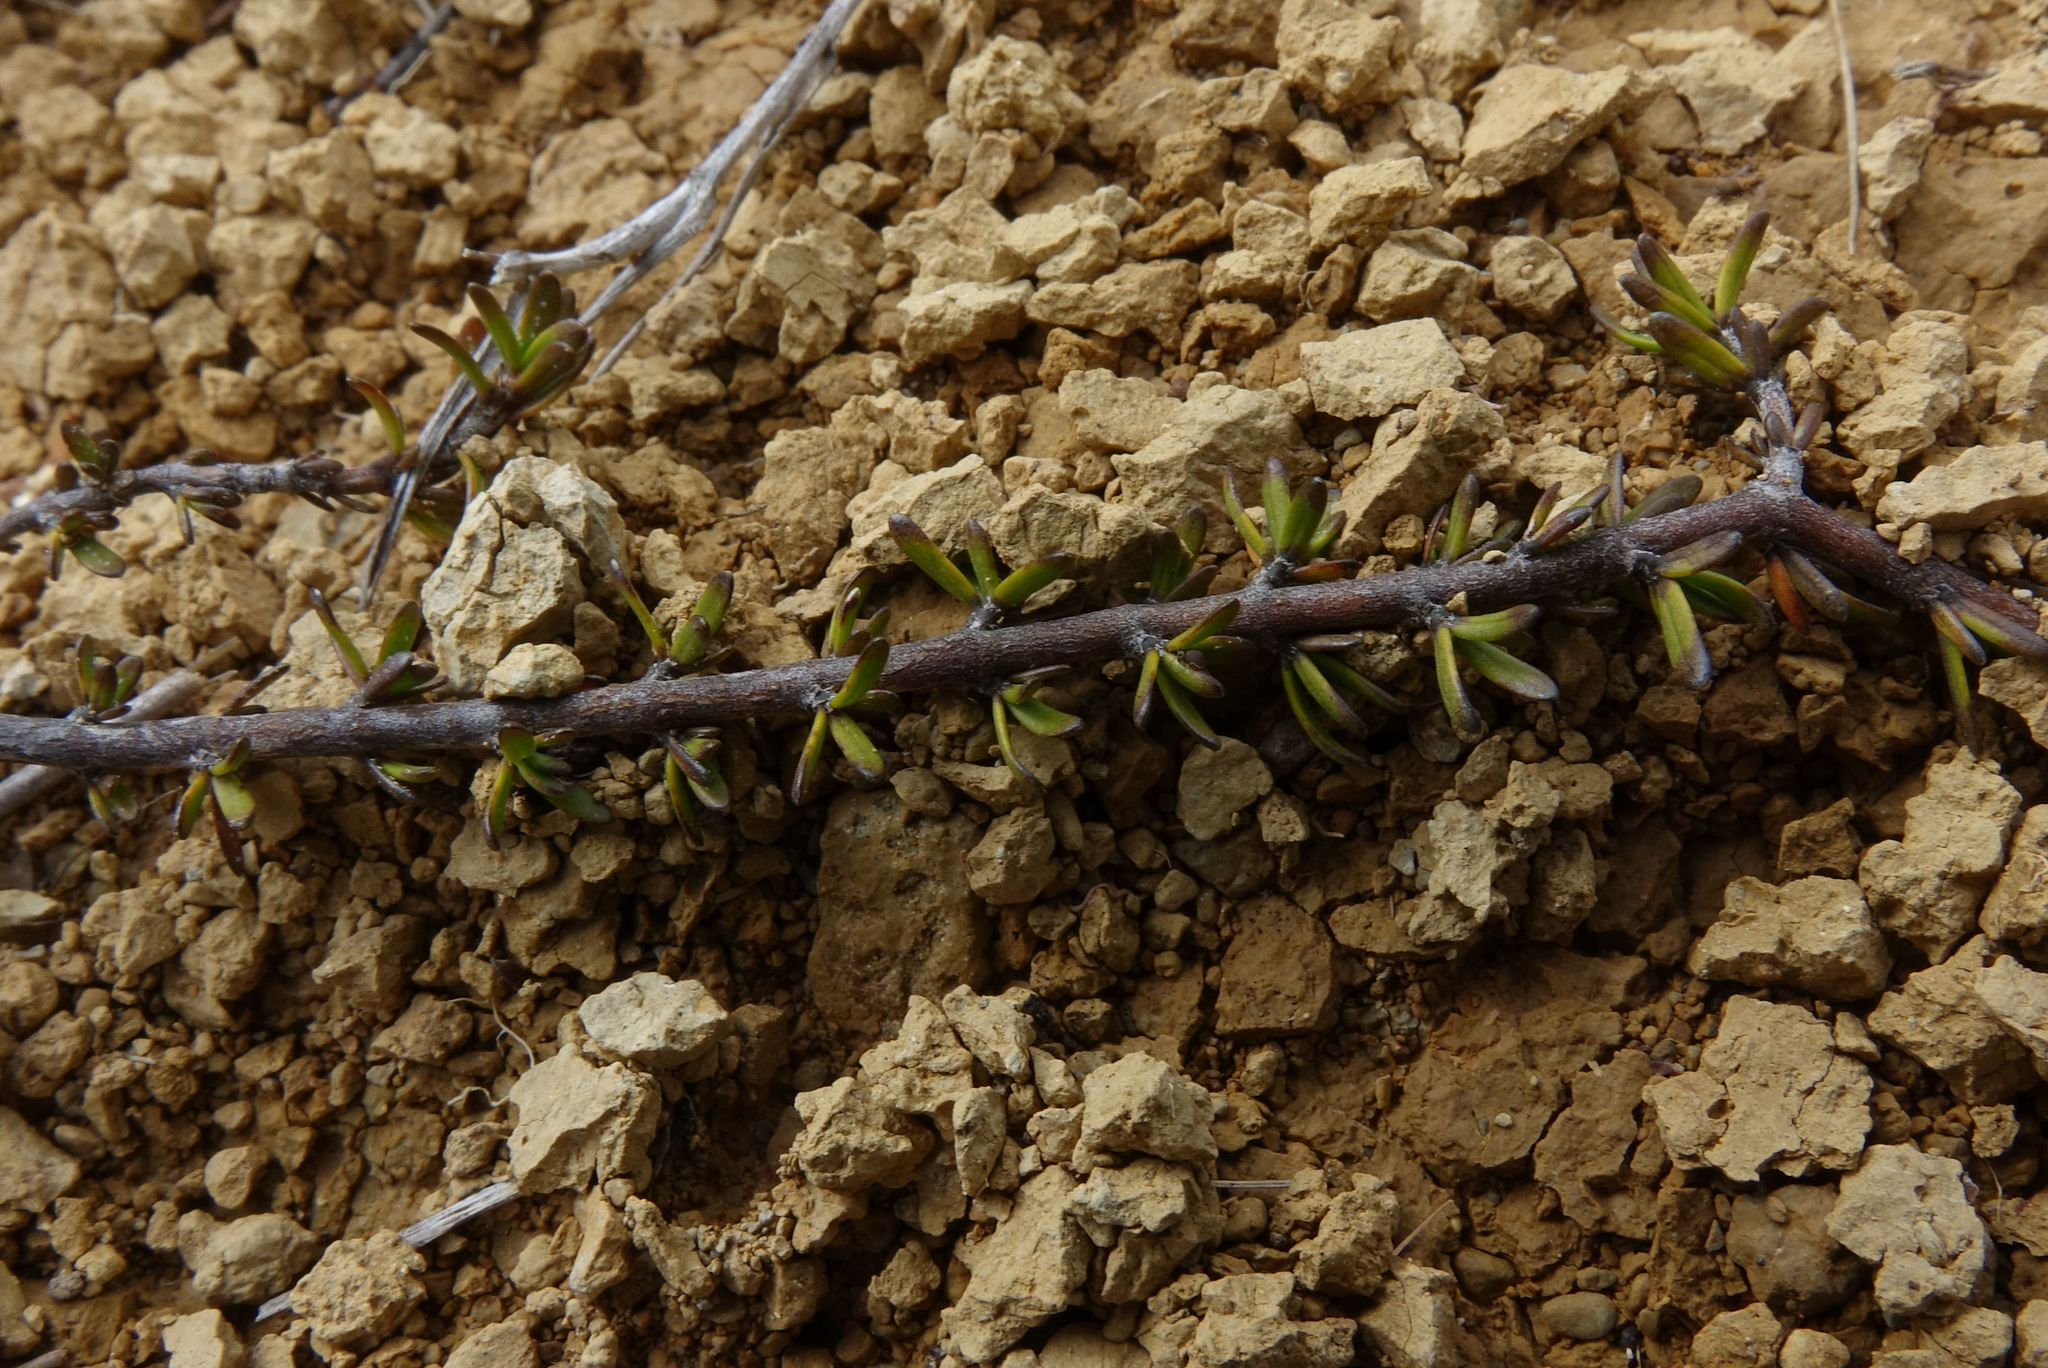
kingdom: Plantae
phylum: Tracheophyta
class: Magnoliopsida
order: Gentianales
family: Rubiaceae
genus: Coprosma
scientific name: Coprosma acerosa
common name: Sand coprosma
